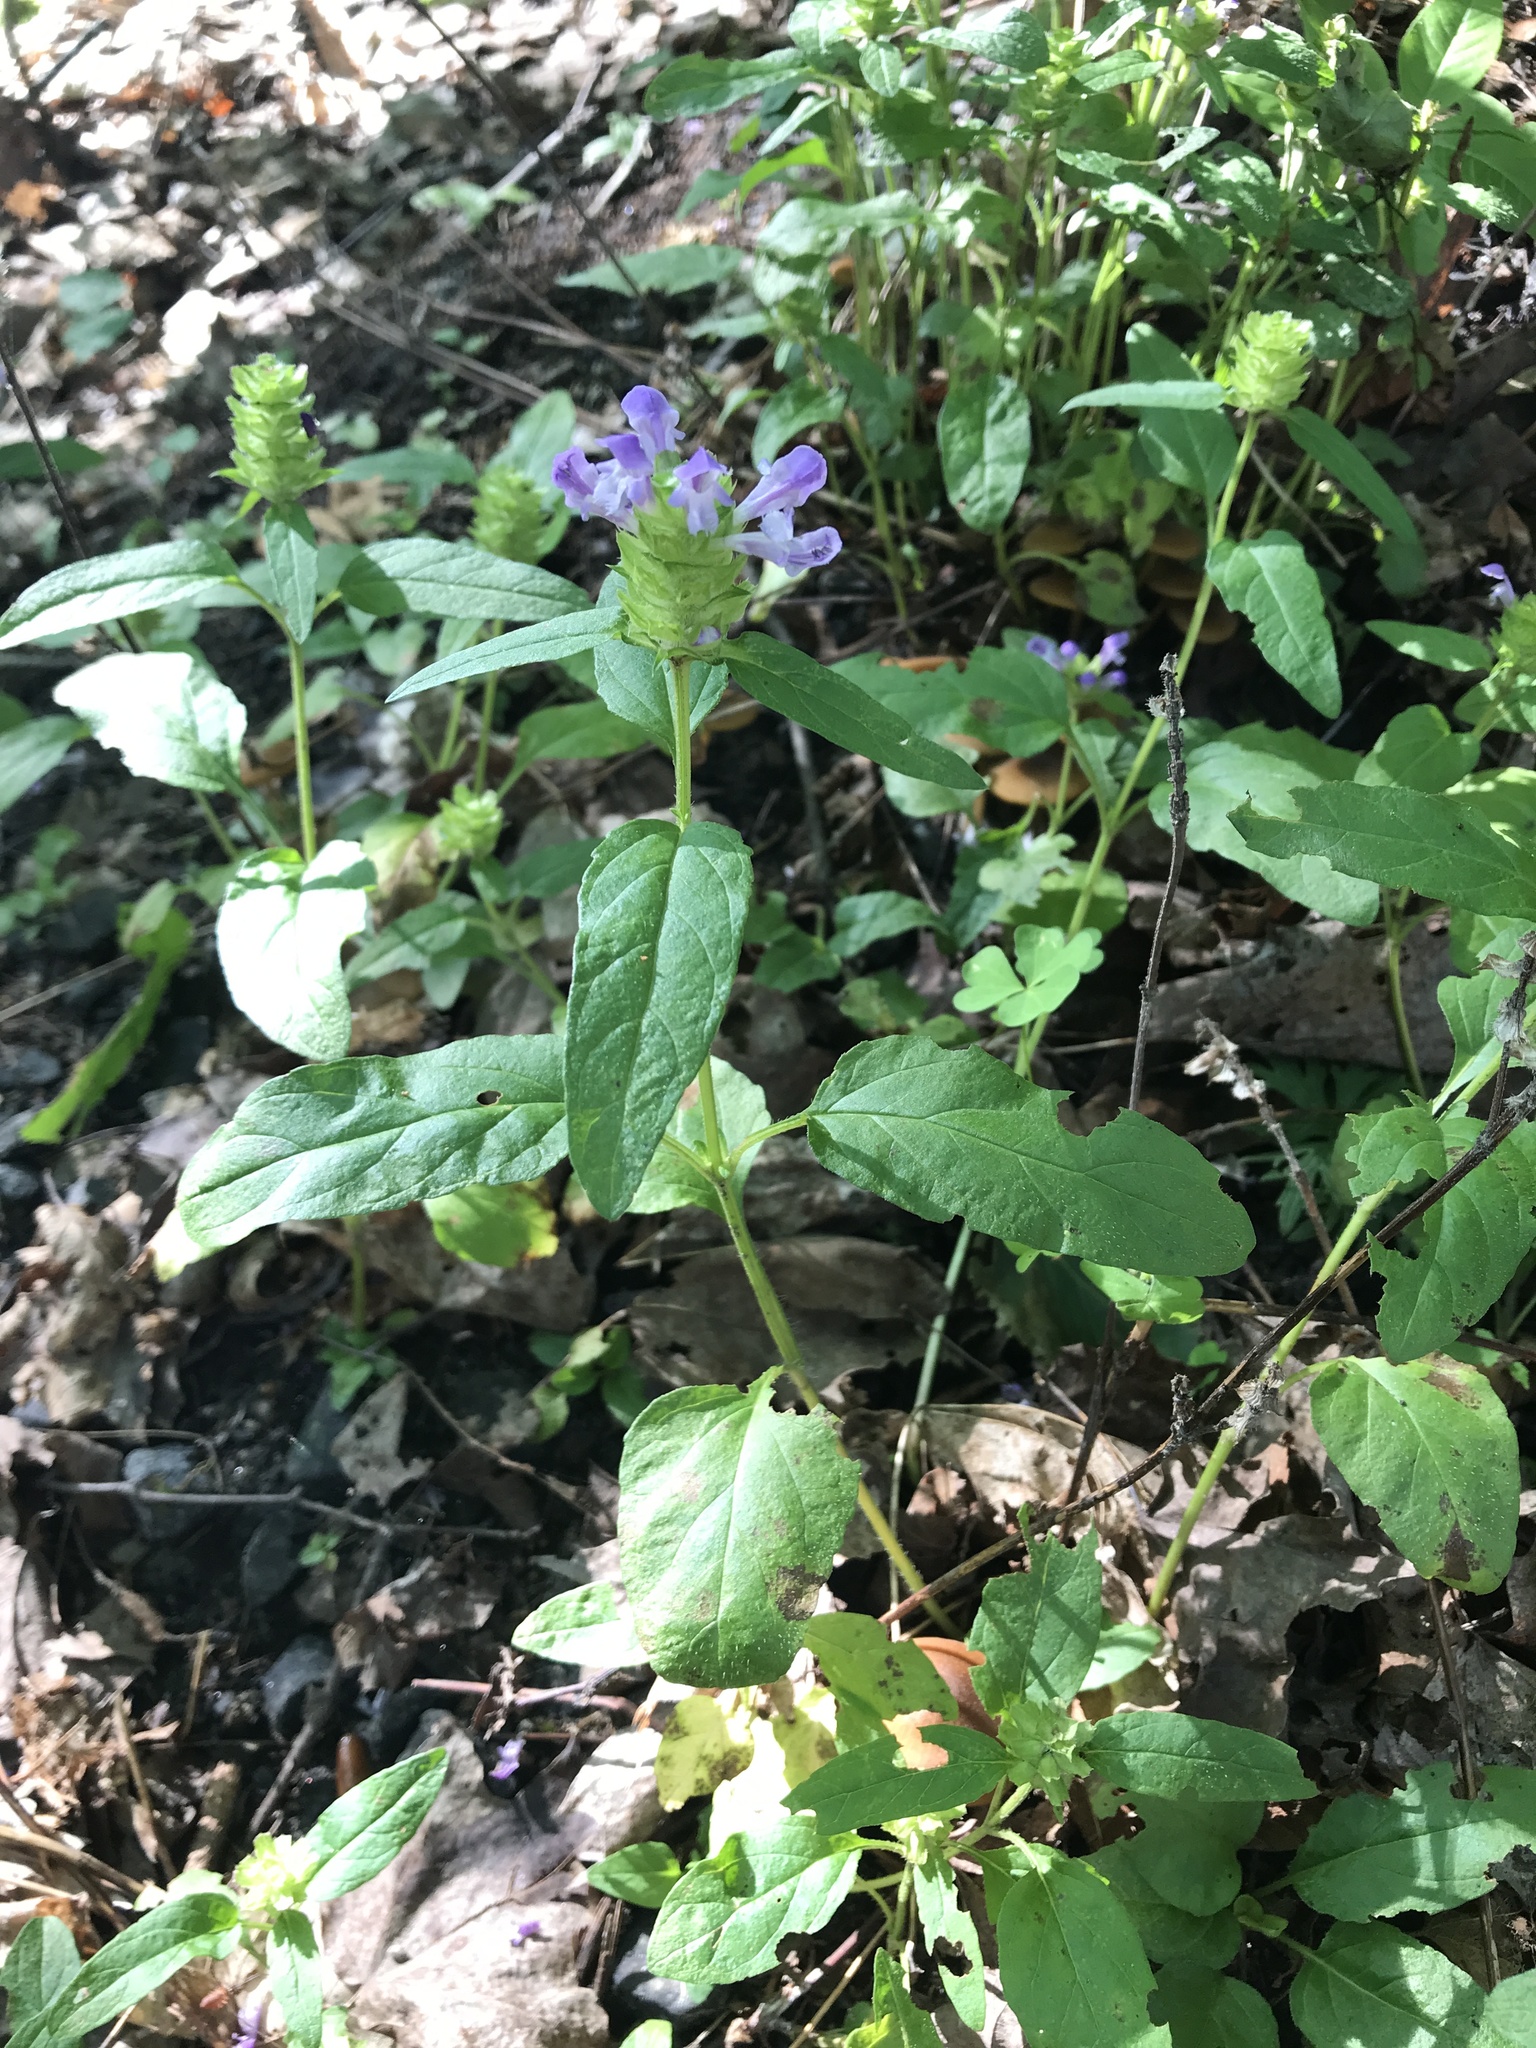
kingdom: Plantae
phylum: Tracheophyta
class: Magnoliopsida
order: Lamiales
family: Lamiaceae
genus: Prunella
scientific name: Prunella vulgaris
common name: Heal-all
